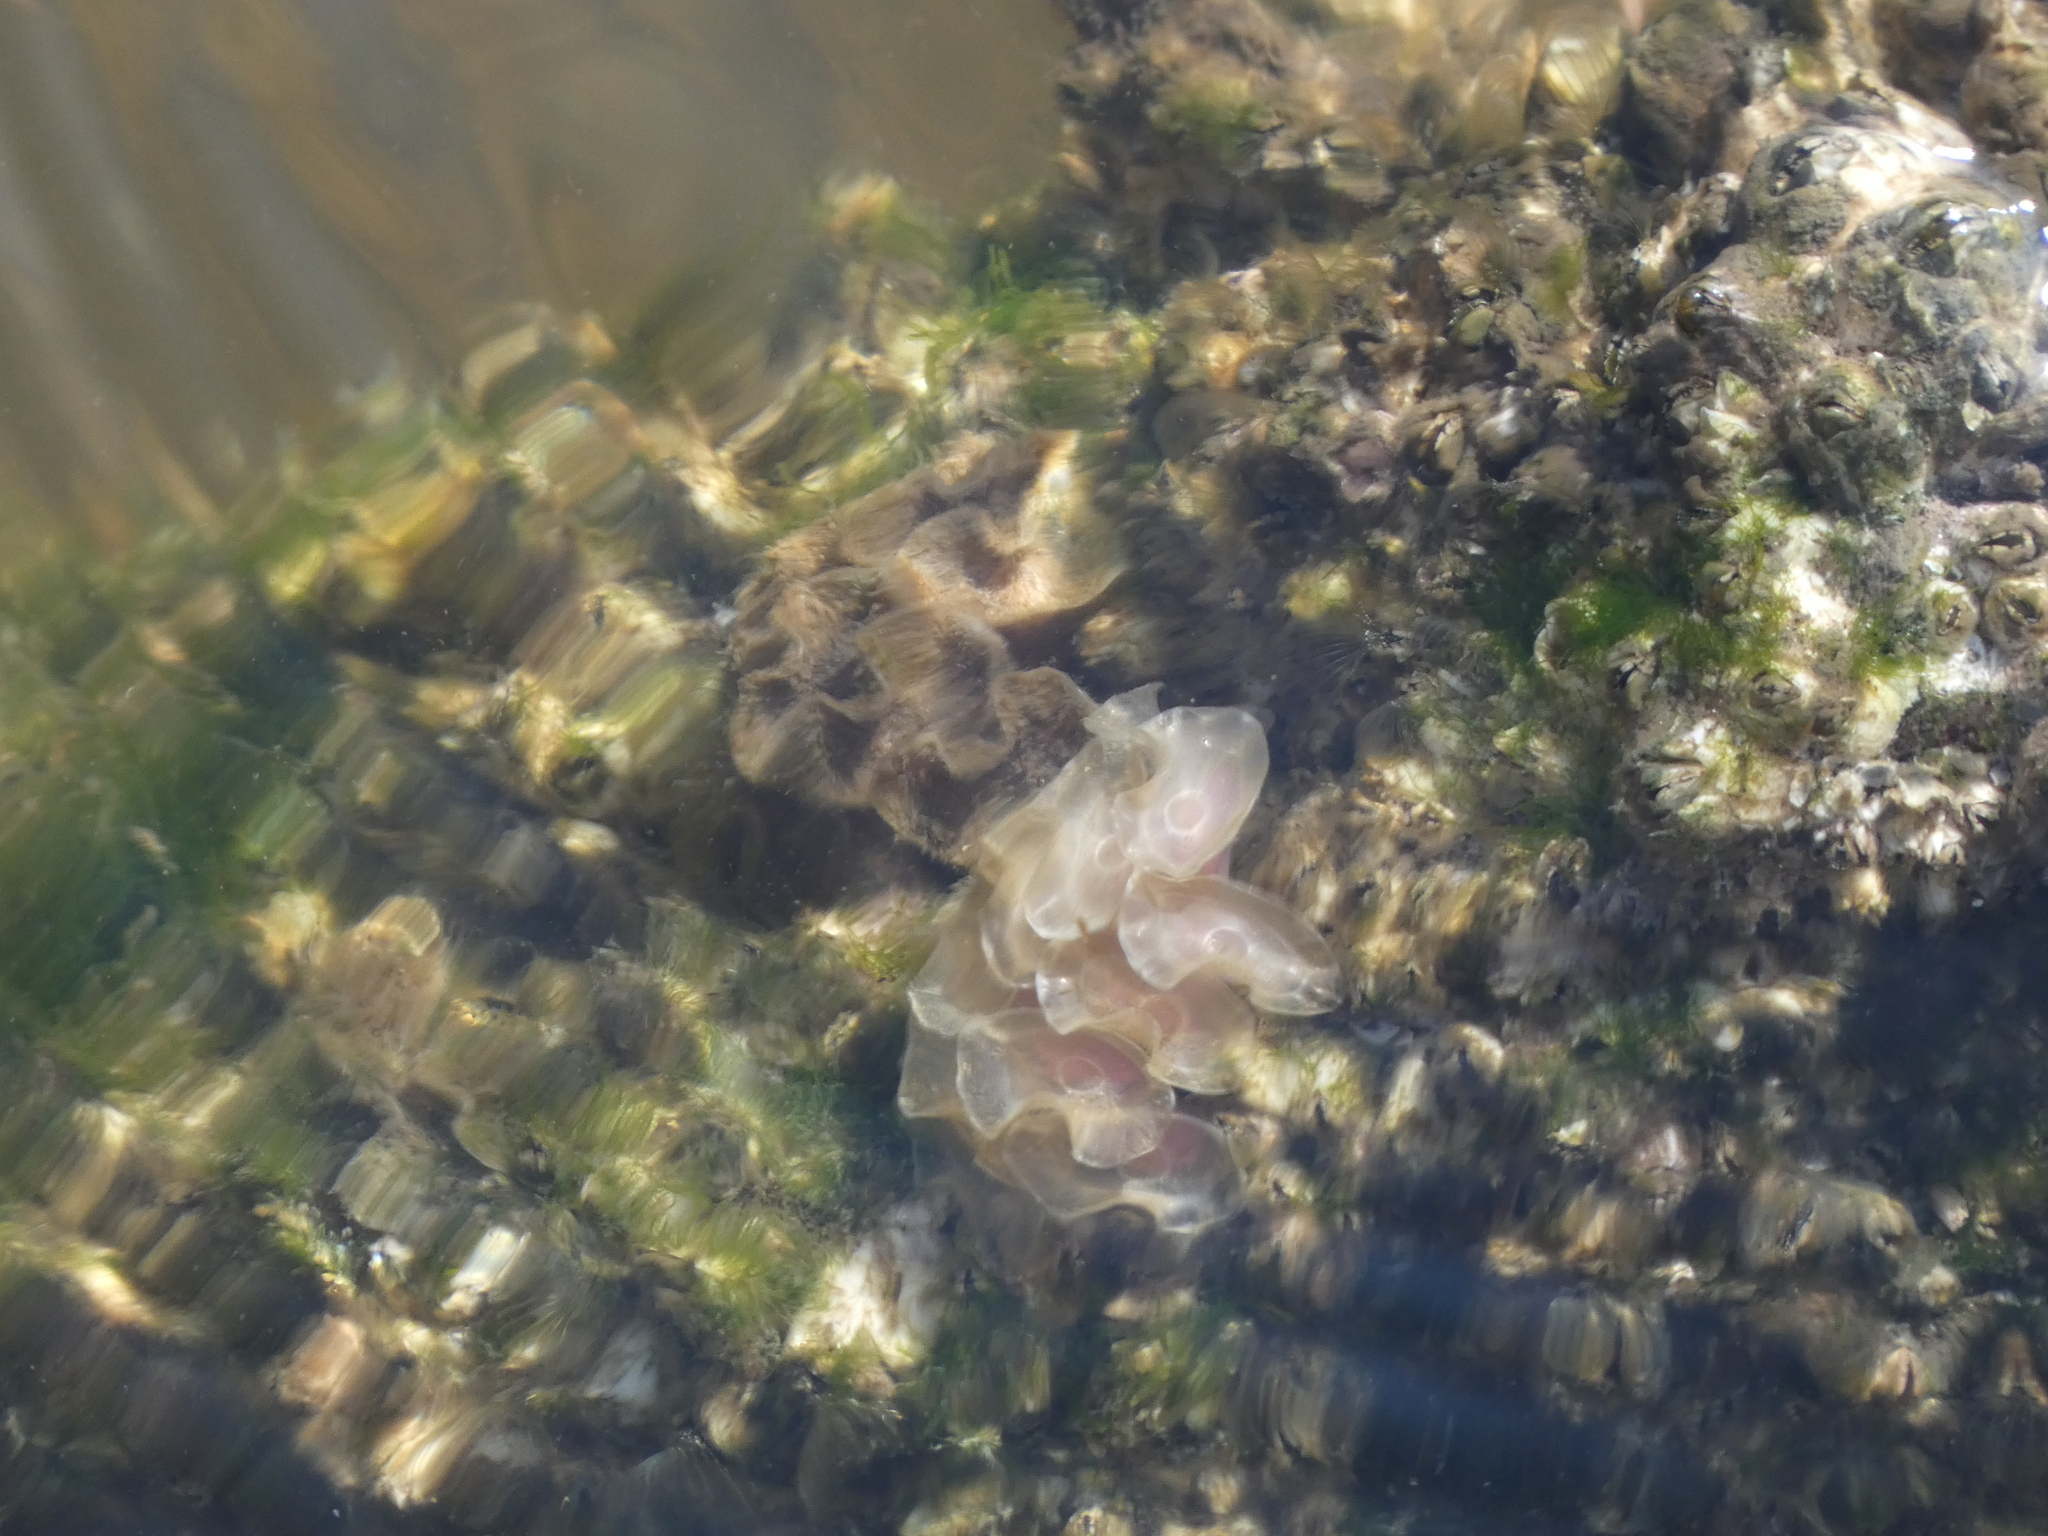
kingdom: Animalia
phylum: Mollusca
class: Gastropoda
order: Neogastropoda
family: Fasciolariidae
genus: Cinctura
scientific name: Cinctura hunteria
